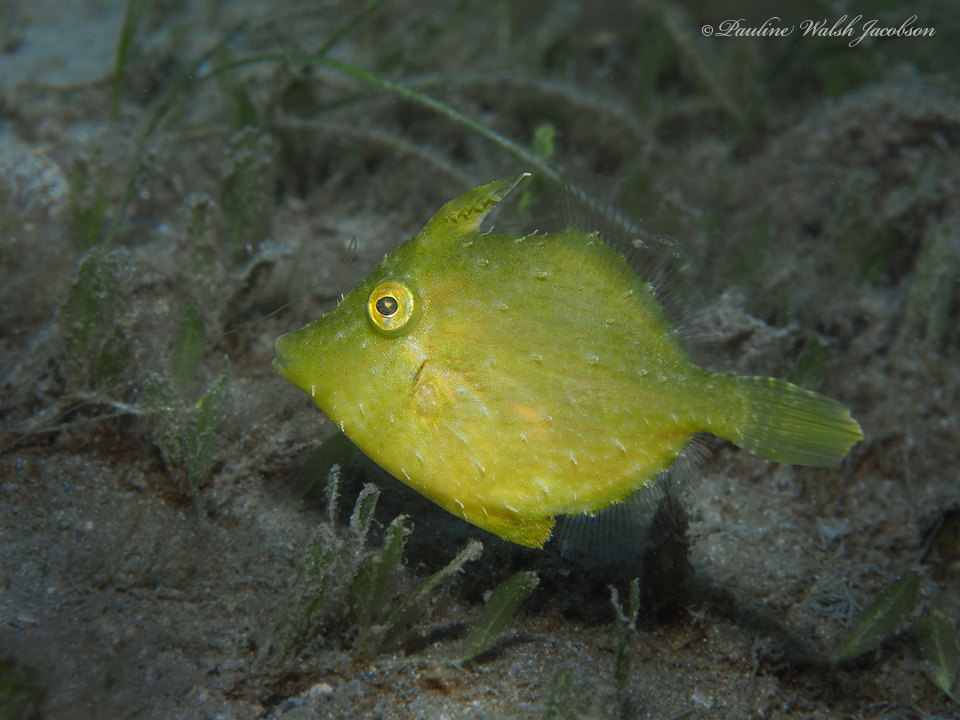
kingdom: Animalia
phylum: Chordata
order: Tetraodontiformes
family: Monacanthidae
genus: Stephanolepis
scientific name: Stephanolepis hispidus
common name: Planehead filefish
